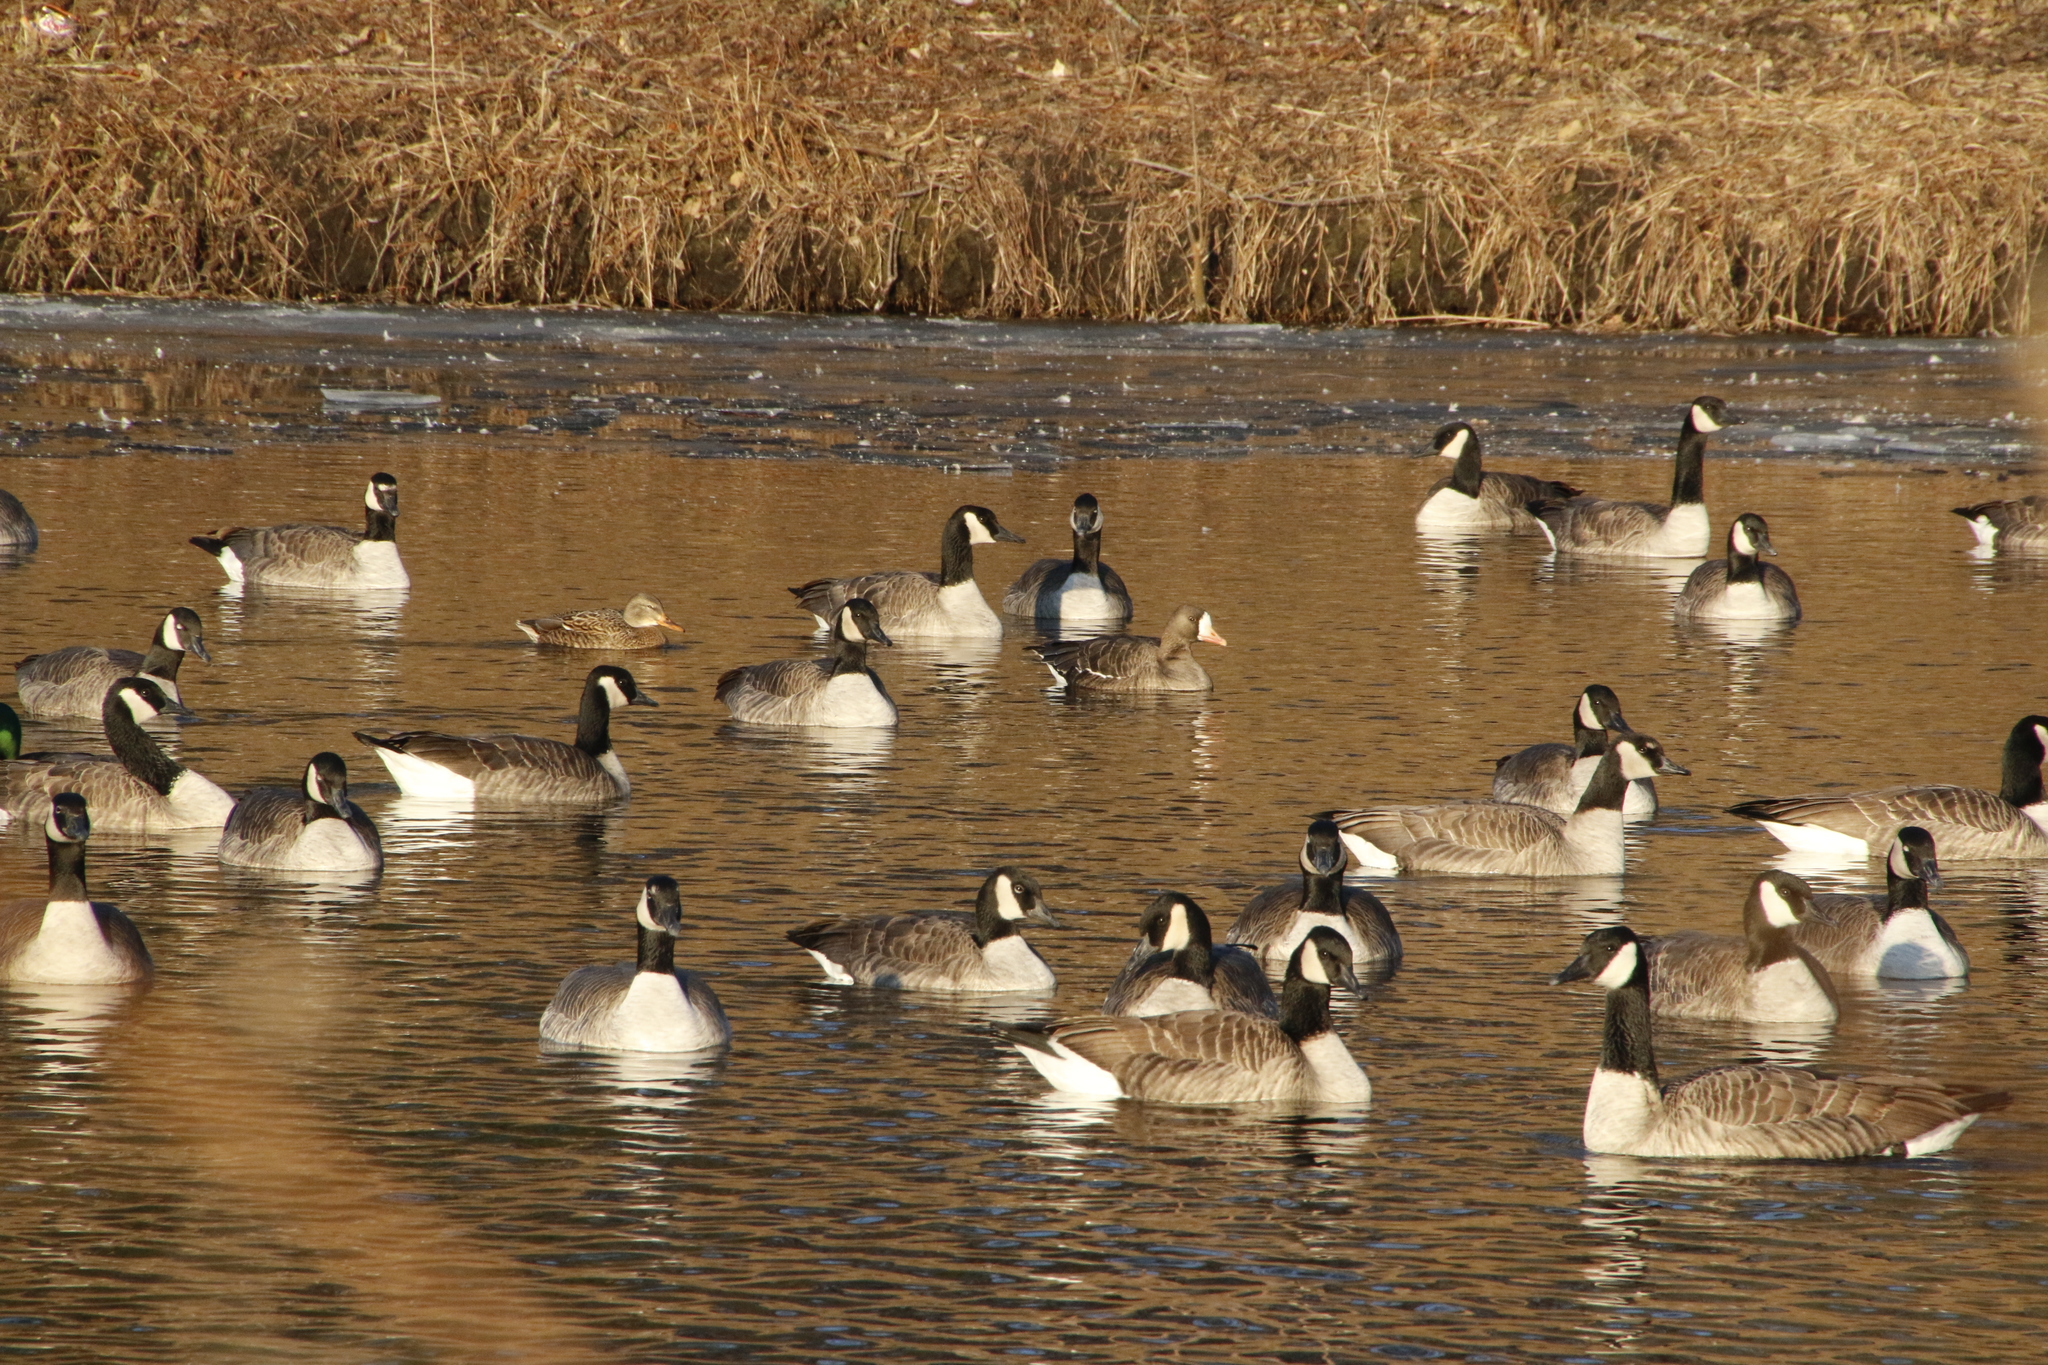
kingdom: Animalia
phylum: Chordata
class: Aves
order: Anseriformes
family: Anatidae
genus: Anser
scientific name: Anser albifrons
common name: Greater white-fronted goose
